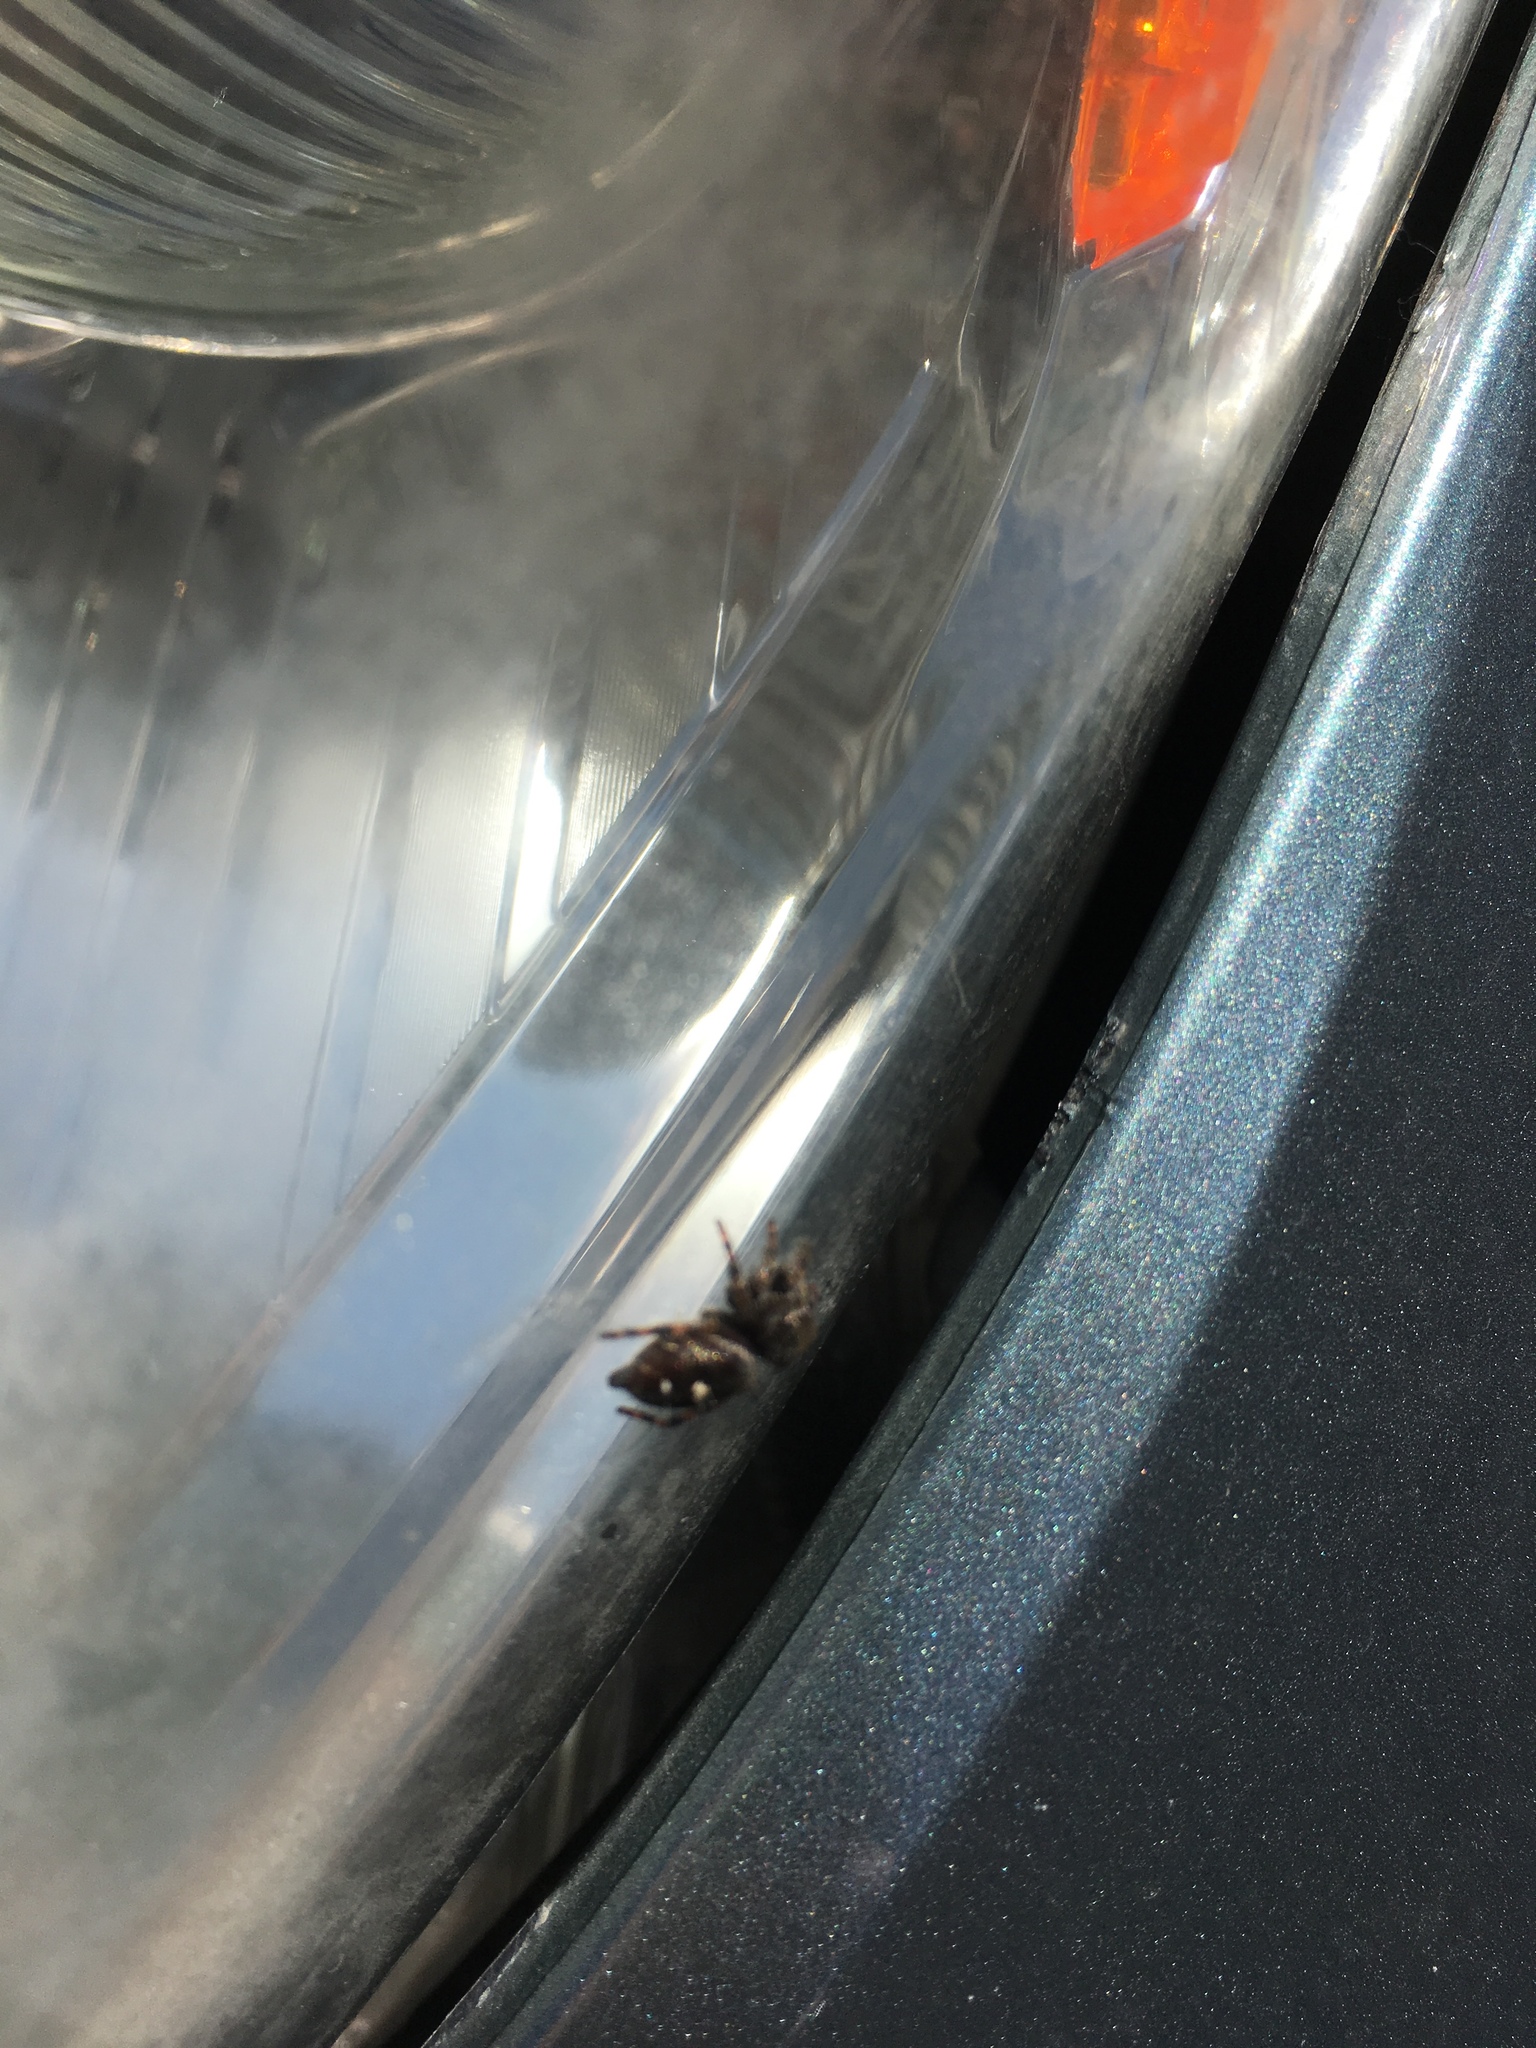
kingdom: Animalia
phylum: Arthropoda
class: Arachnida
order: Araneae
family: Salticidae
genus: Phidippus
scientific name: Phidippus audax
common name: Bold jumper
